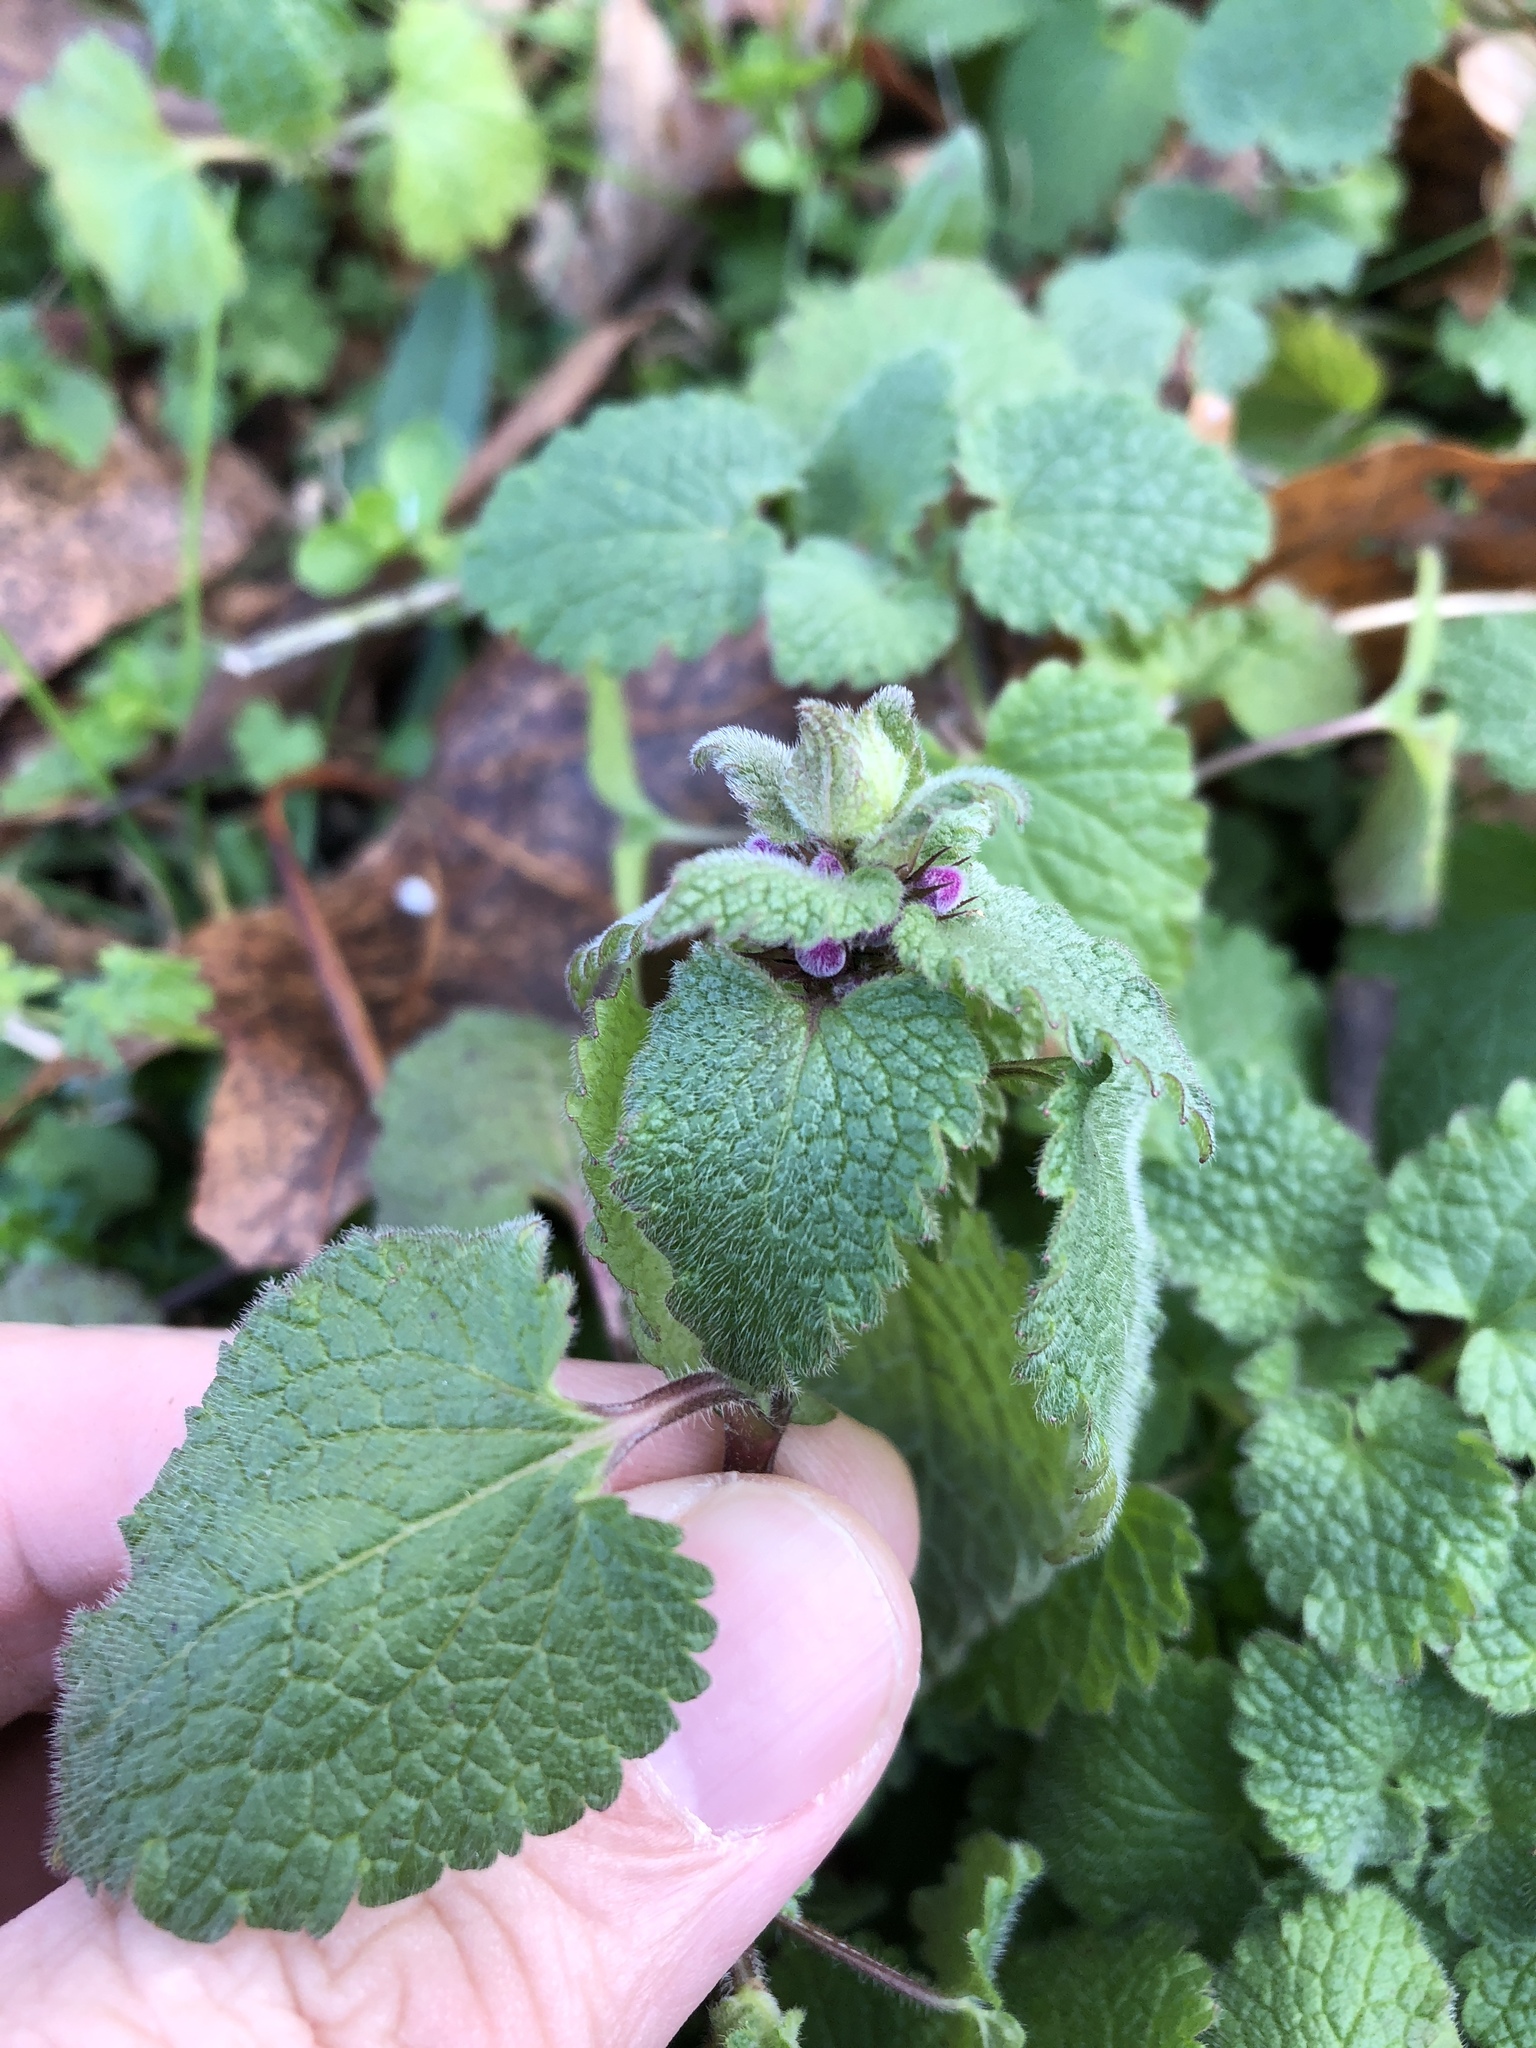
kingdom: Plantae
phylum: Tracheophyta
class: Magnoliopsida
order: Lamiales
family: Lamiaceae
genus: Lamium
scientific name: Lamium purpureum
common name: Red dead-nettle
